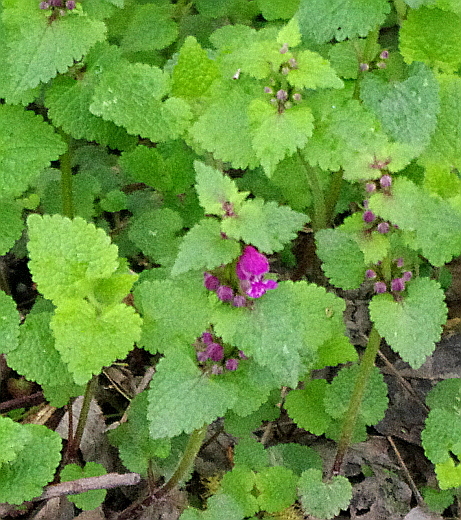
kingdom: Plantae
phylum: Tracheophyta
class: Magnoliopsida
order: Lamiales
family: Lamiaceae
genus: Lamium
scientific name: Lamium maculatum
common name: Spotted dead-nettle
